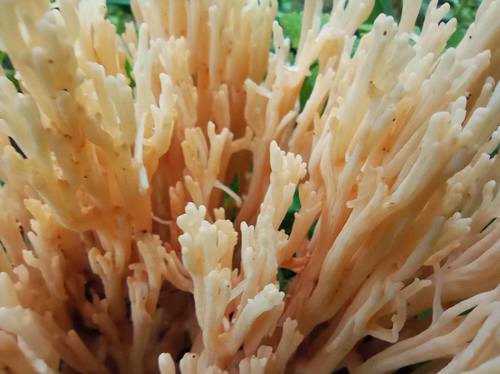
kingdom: Fungi
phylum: Basidiomycota
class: Agaricomycetes
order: Gomphales
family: Gomphaceae
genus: Ramaria
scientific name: Ramaria pallida
